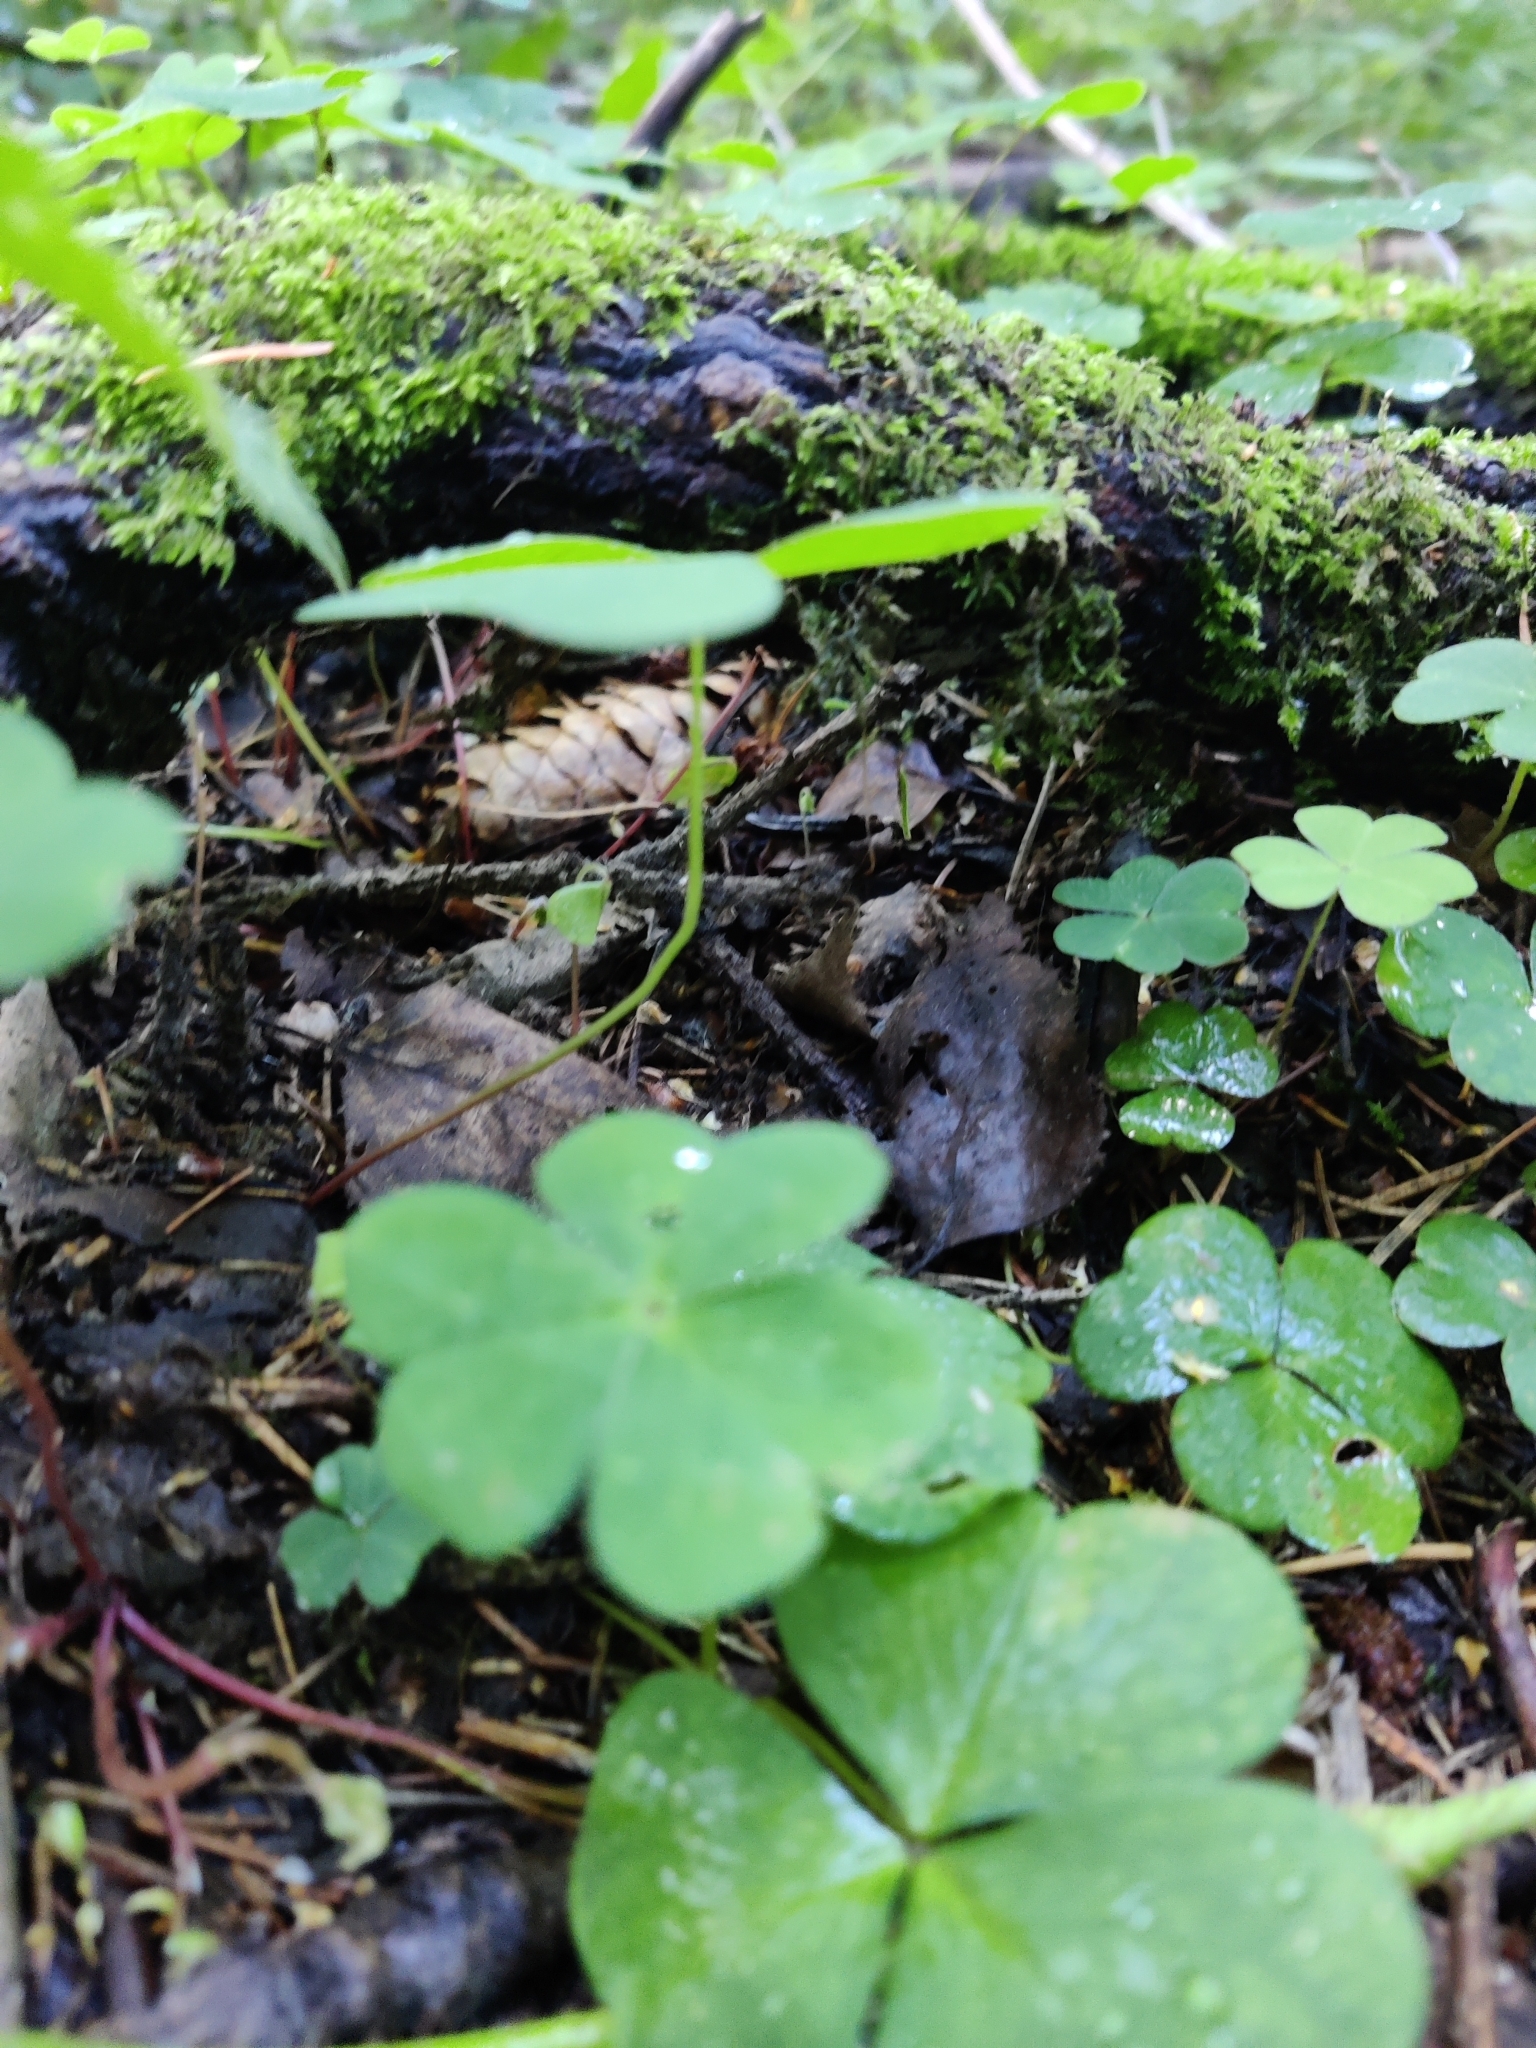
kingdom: Plantae
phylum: Tracheophyta
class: Magnoliopsida
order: Oxalidales
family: Oxalidaceae
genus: Oxalis
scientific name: Oxalis acetosella
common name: Wood-sorrel
